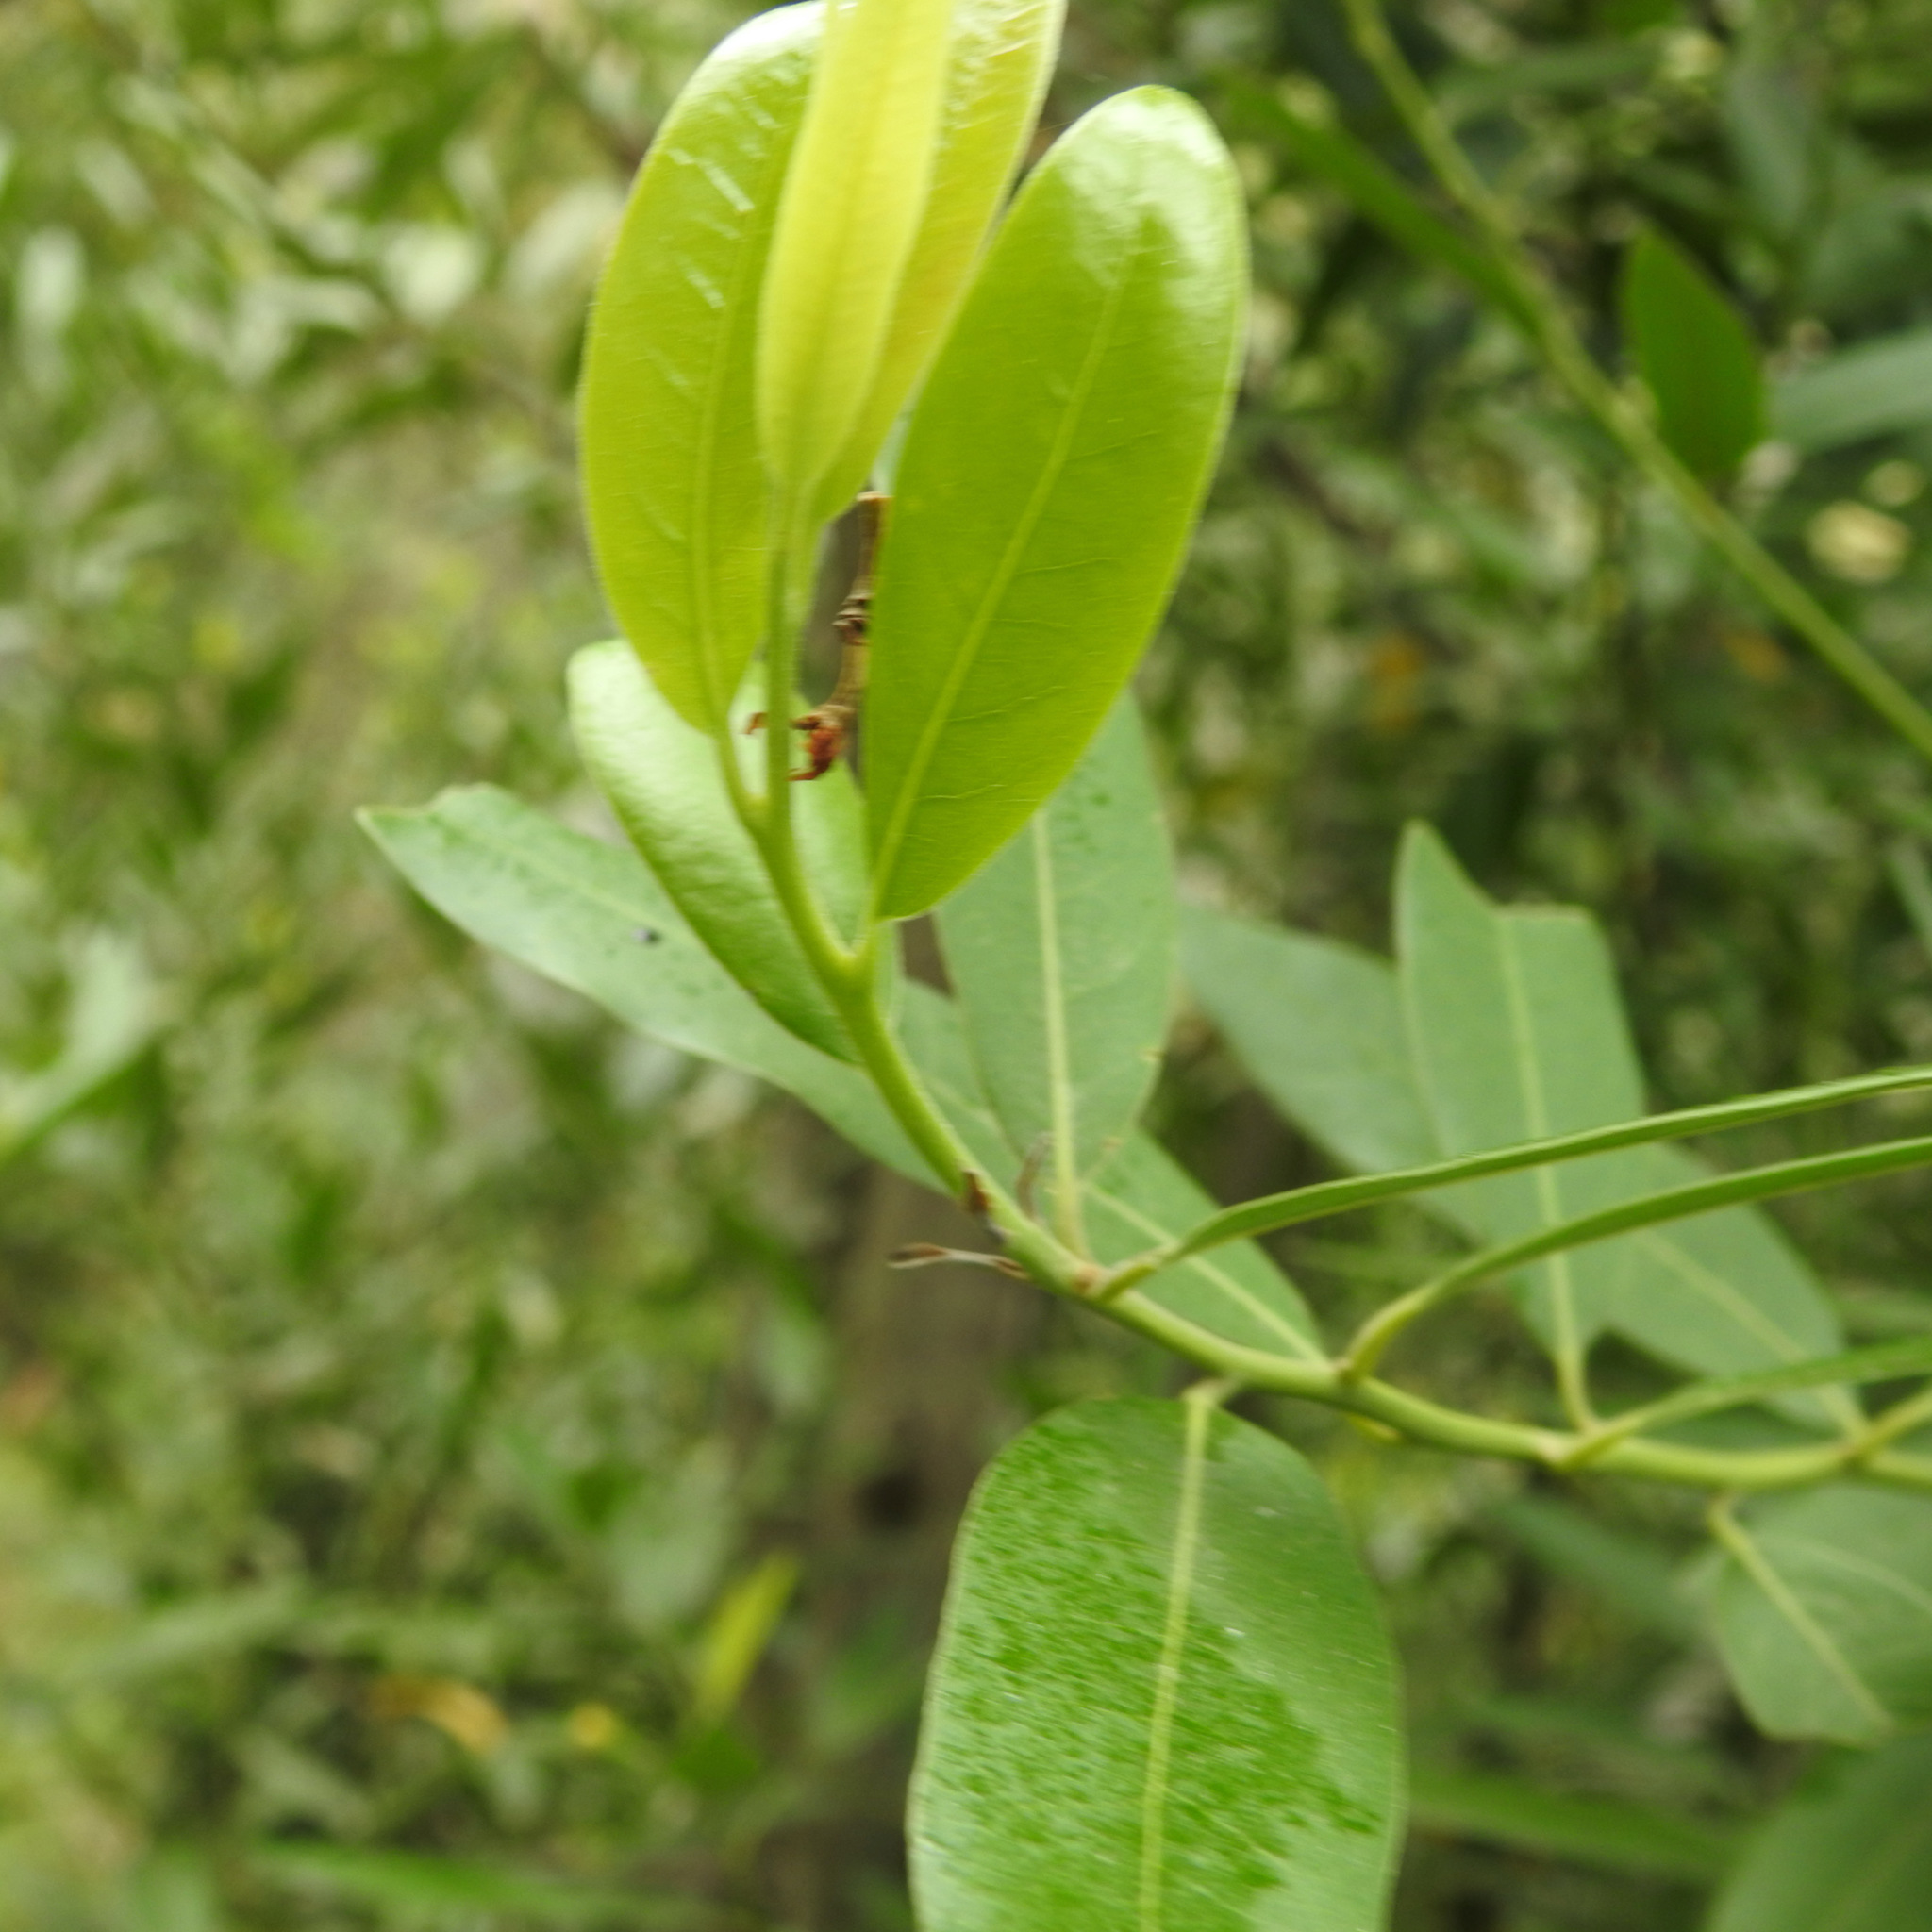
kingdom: Plantae
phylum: Tracheophyta
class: Magnoliopsida
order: Laurales
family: Lauraceae
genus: Umbellularia
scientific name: Umbellularia californica
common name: California bay
